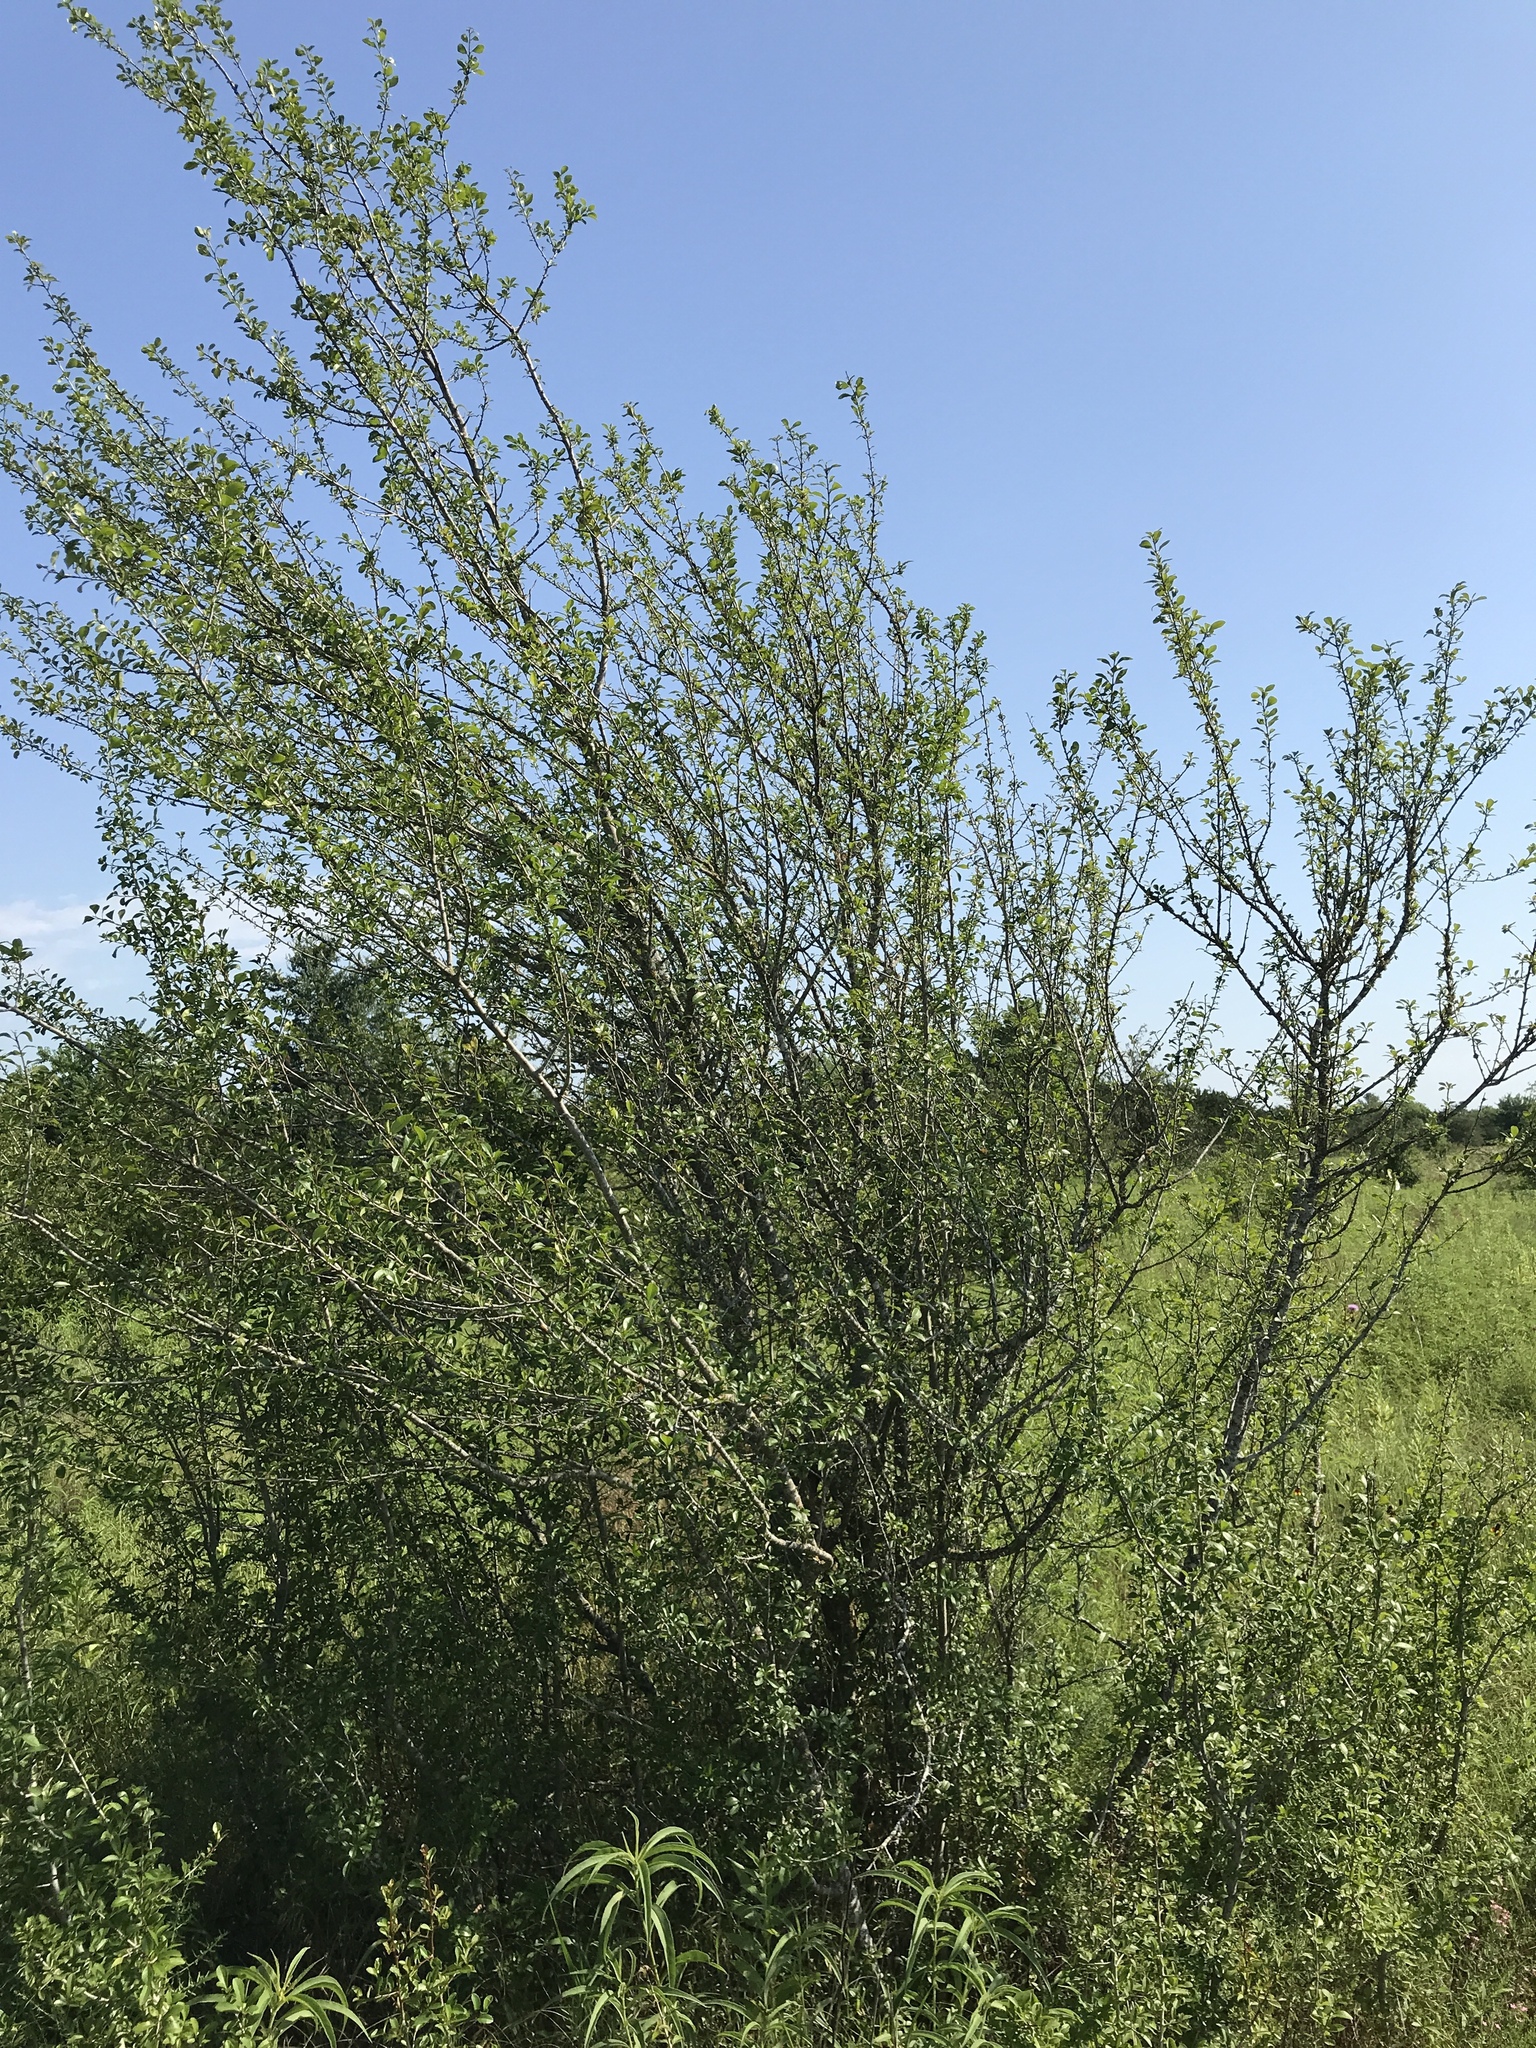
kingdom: Plantae
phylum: Tracheophyta
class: Magnoliopsida
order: Aquifoliales
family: Aquifoliaceae
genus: Ilex
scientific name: Ilex decidua
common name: Possum-haw
